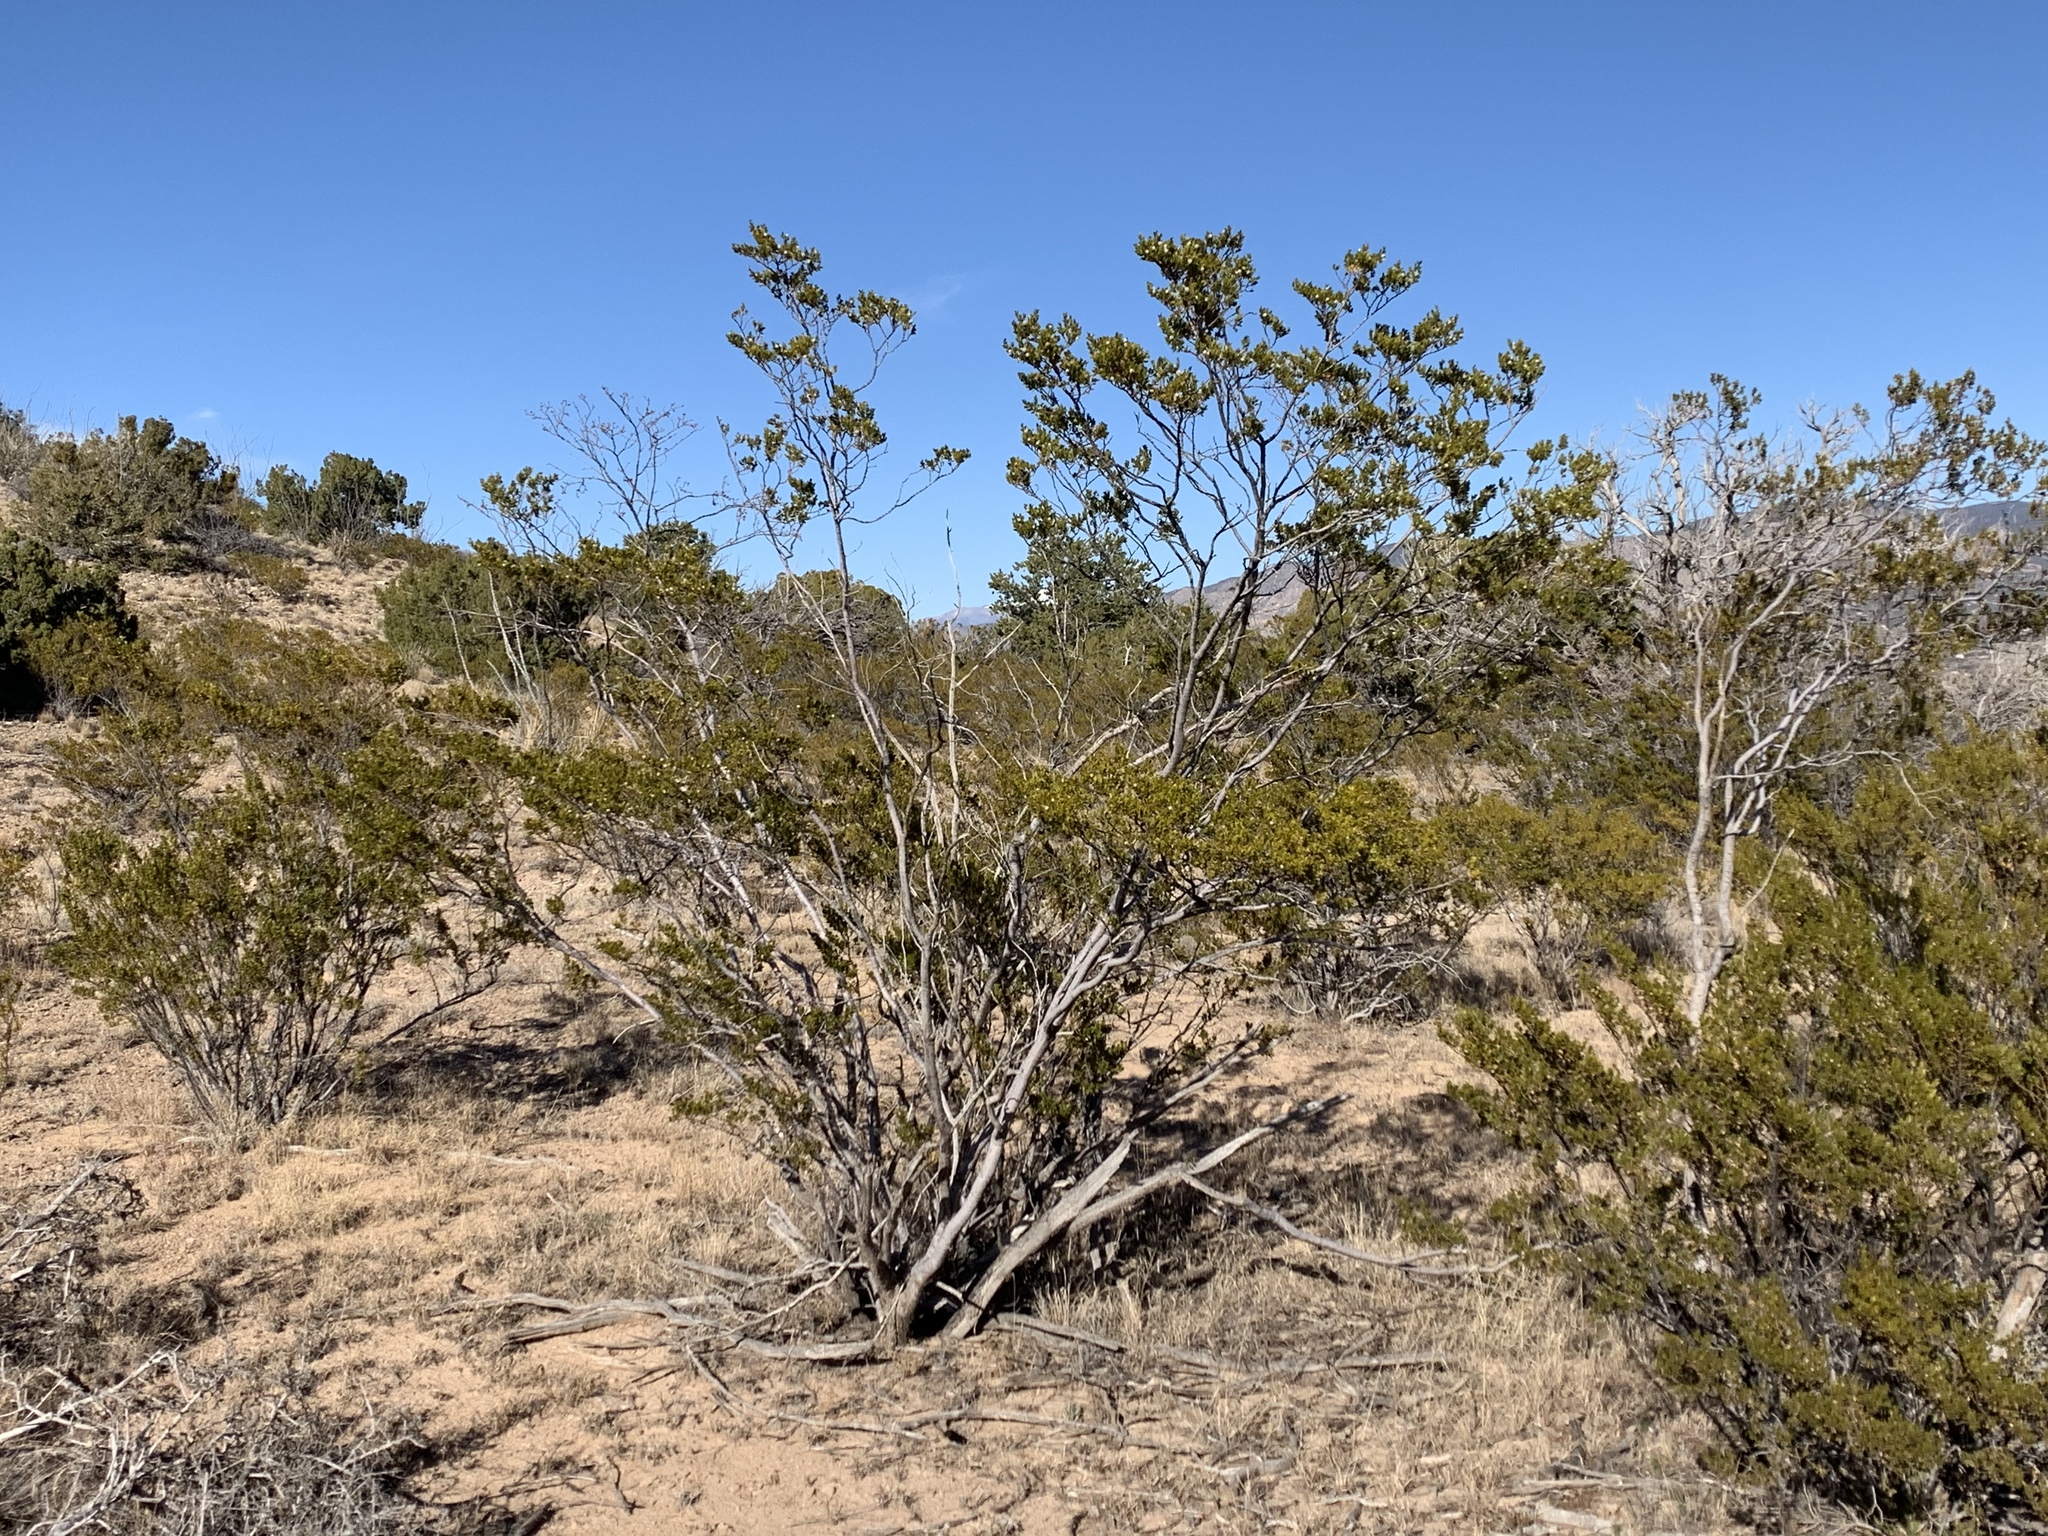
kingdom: Plantae
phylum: Tracheophyta
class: Magnoliopsida
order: Zygophyllales
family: Zygophyllaceae
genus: Larrea
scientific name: Larrea tridentata
